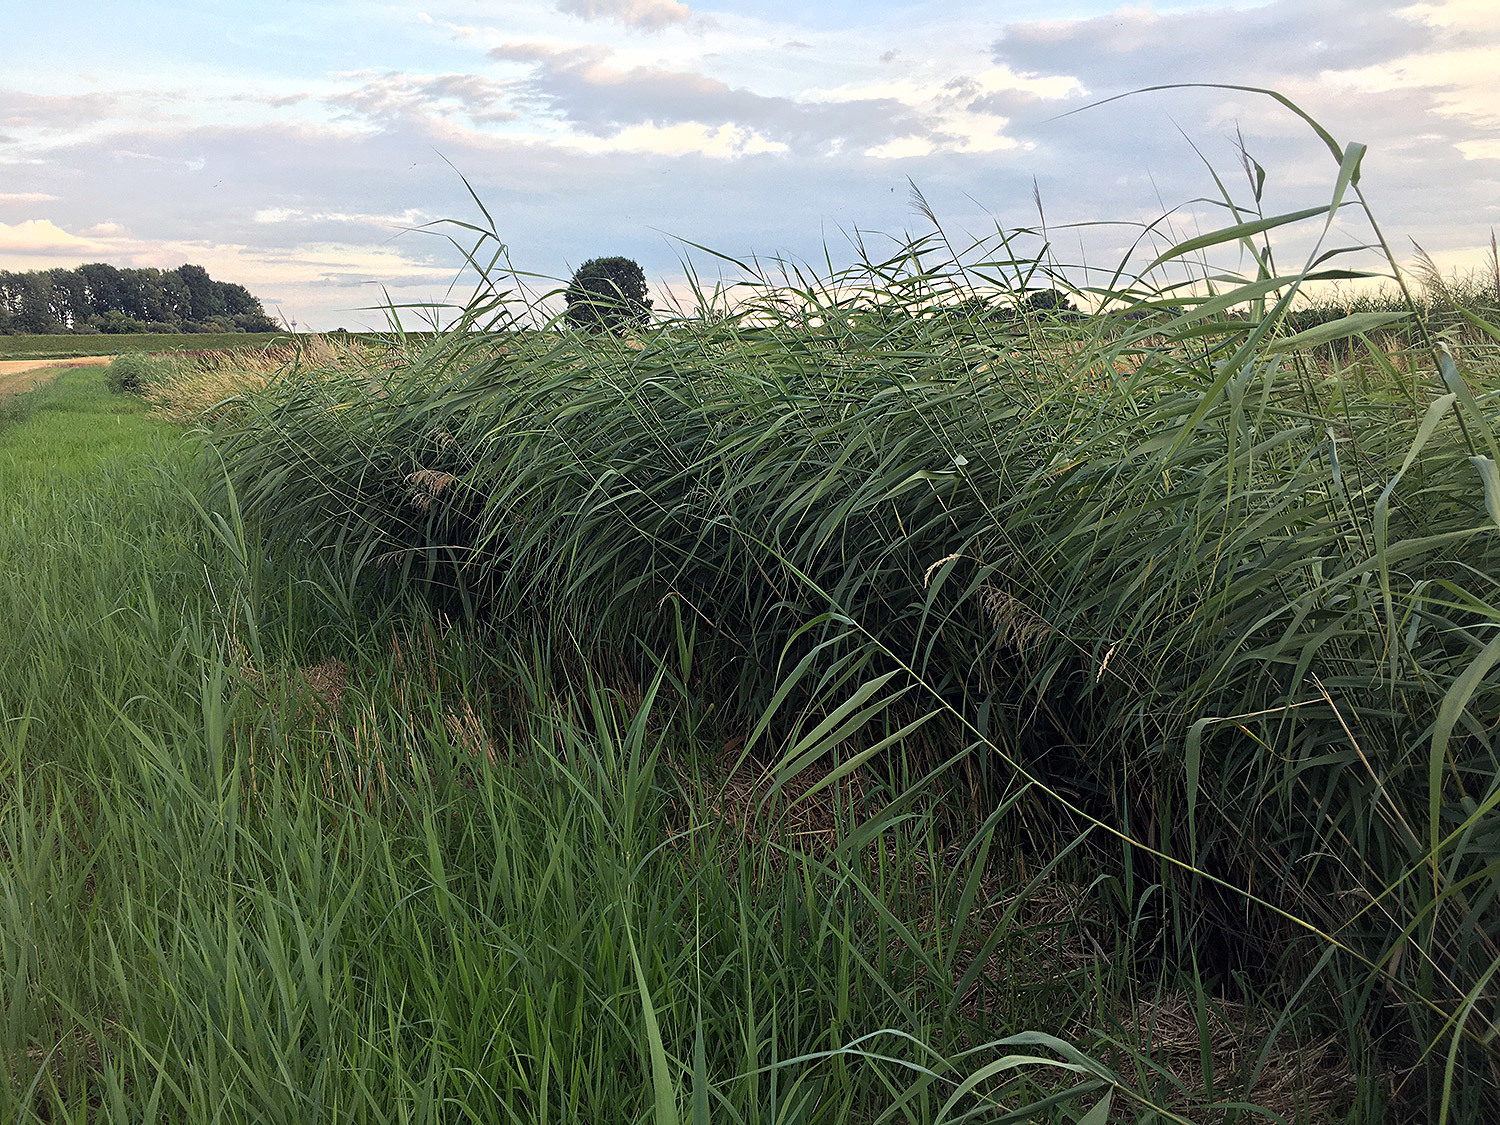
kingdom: Plantae
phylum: Tracheophyta
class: Liliopsida
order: Poales
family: Poaceae
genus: Phragmites
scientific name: Phragmites australis
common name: Common reed
